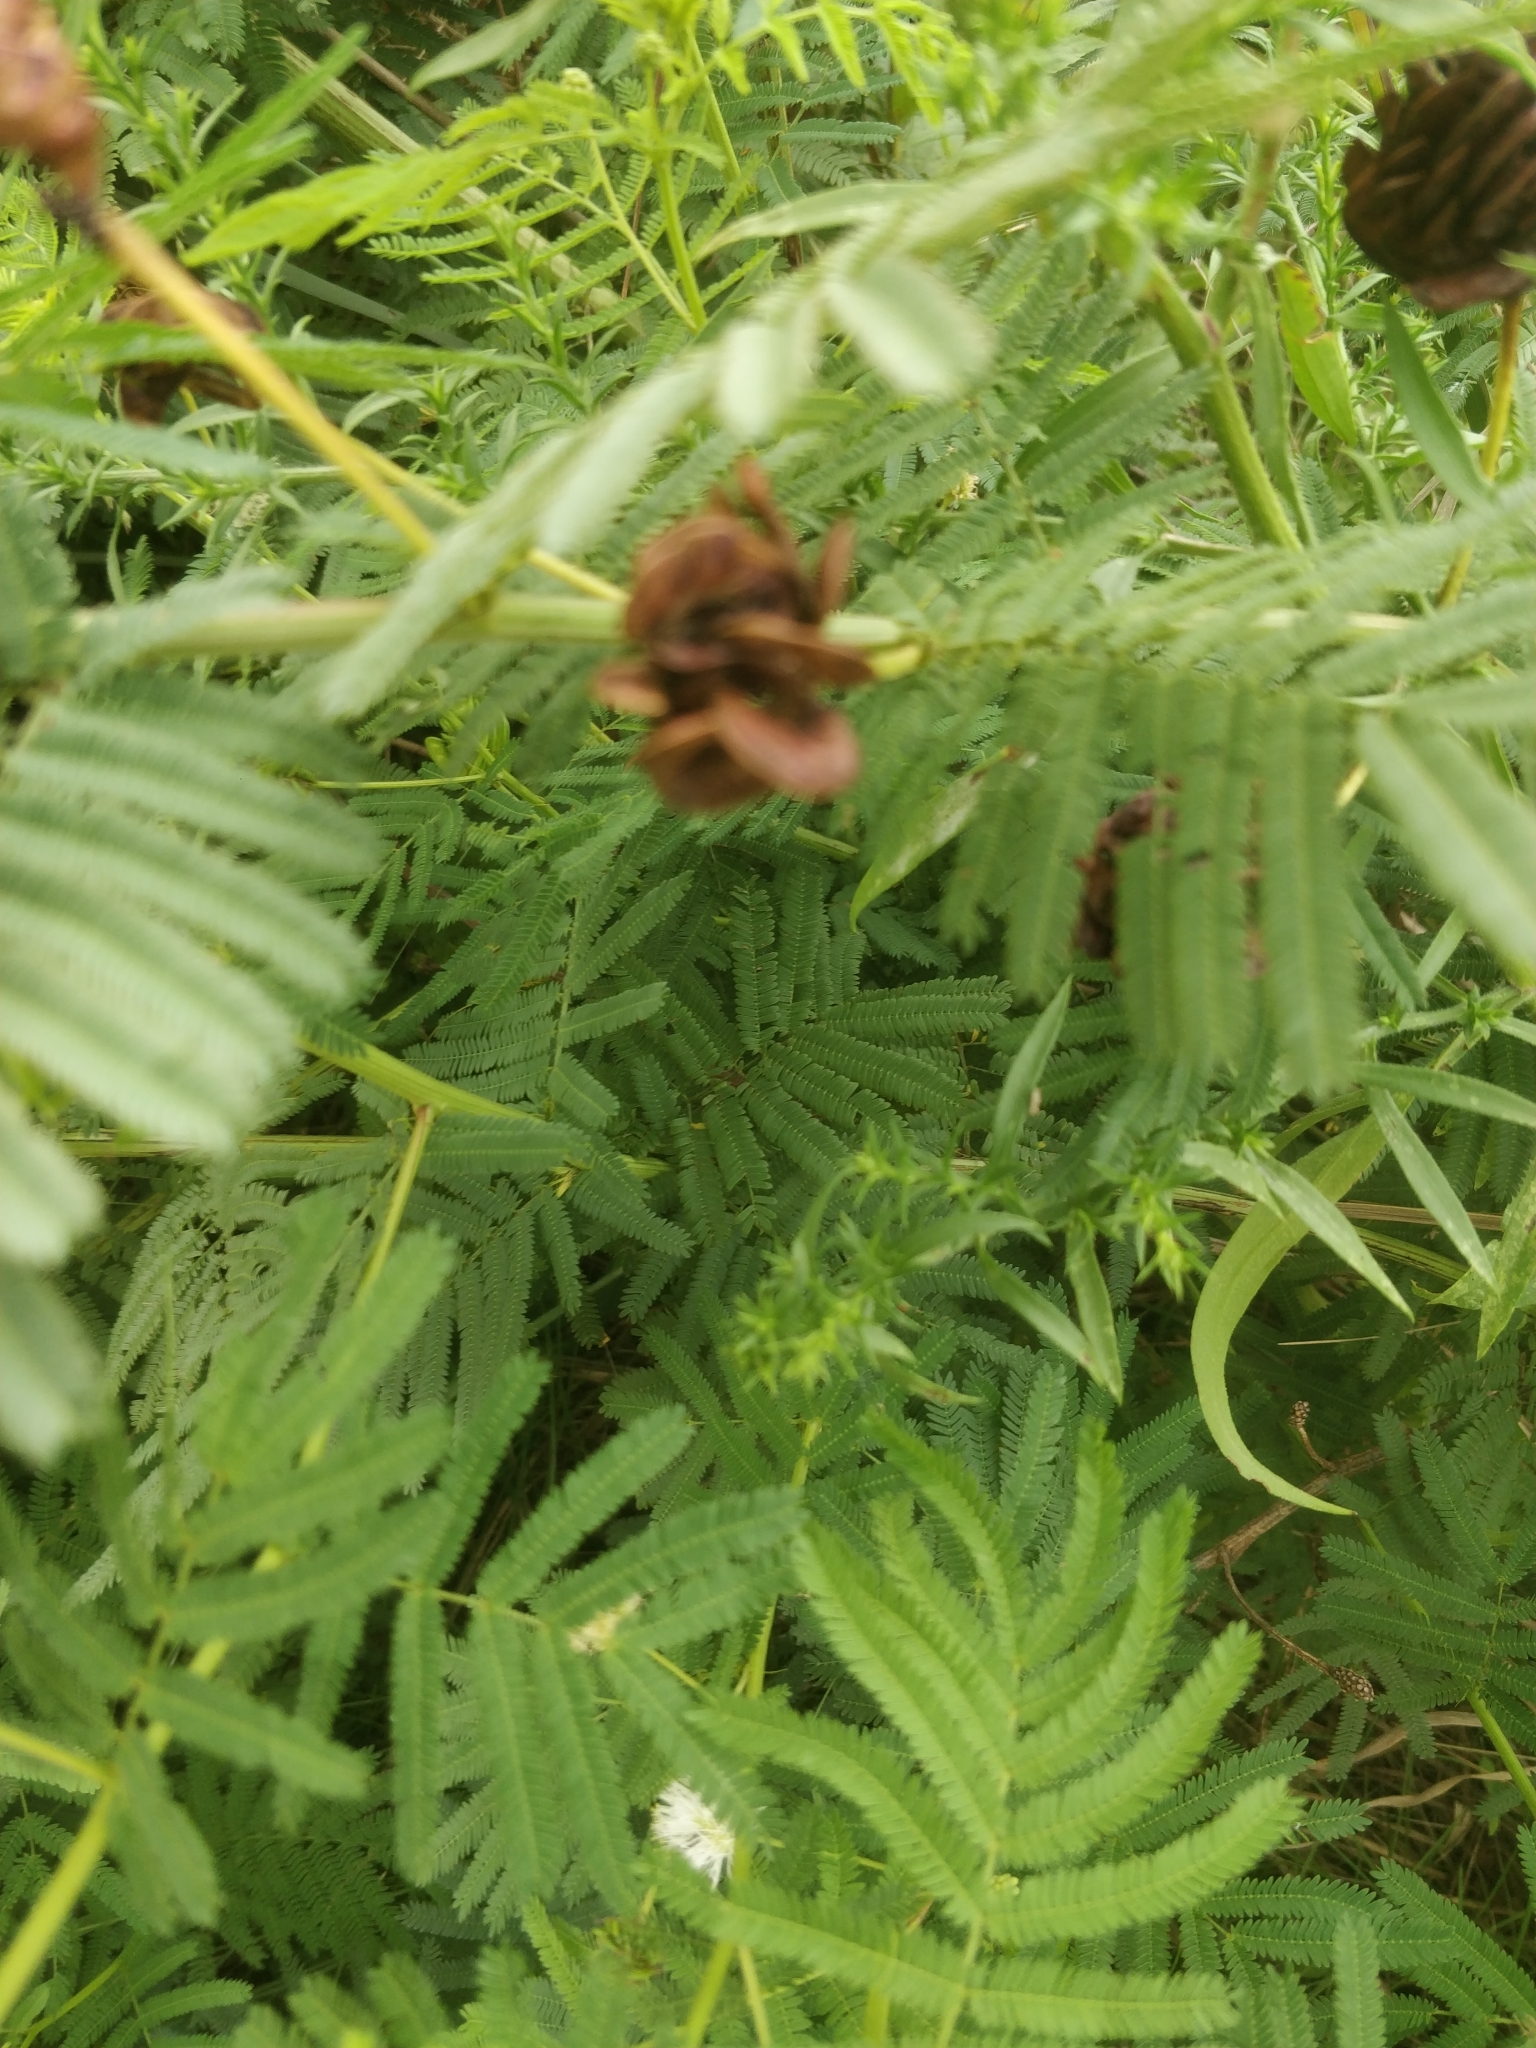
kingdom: Plantae
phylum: Tracheophyta
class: Magnoliopsida
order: Fabales
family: Fabaceae
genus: Desmanthus
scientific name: Desmanthus illinoensis
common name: Illinois bundle-flower
